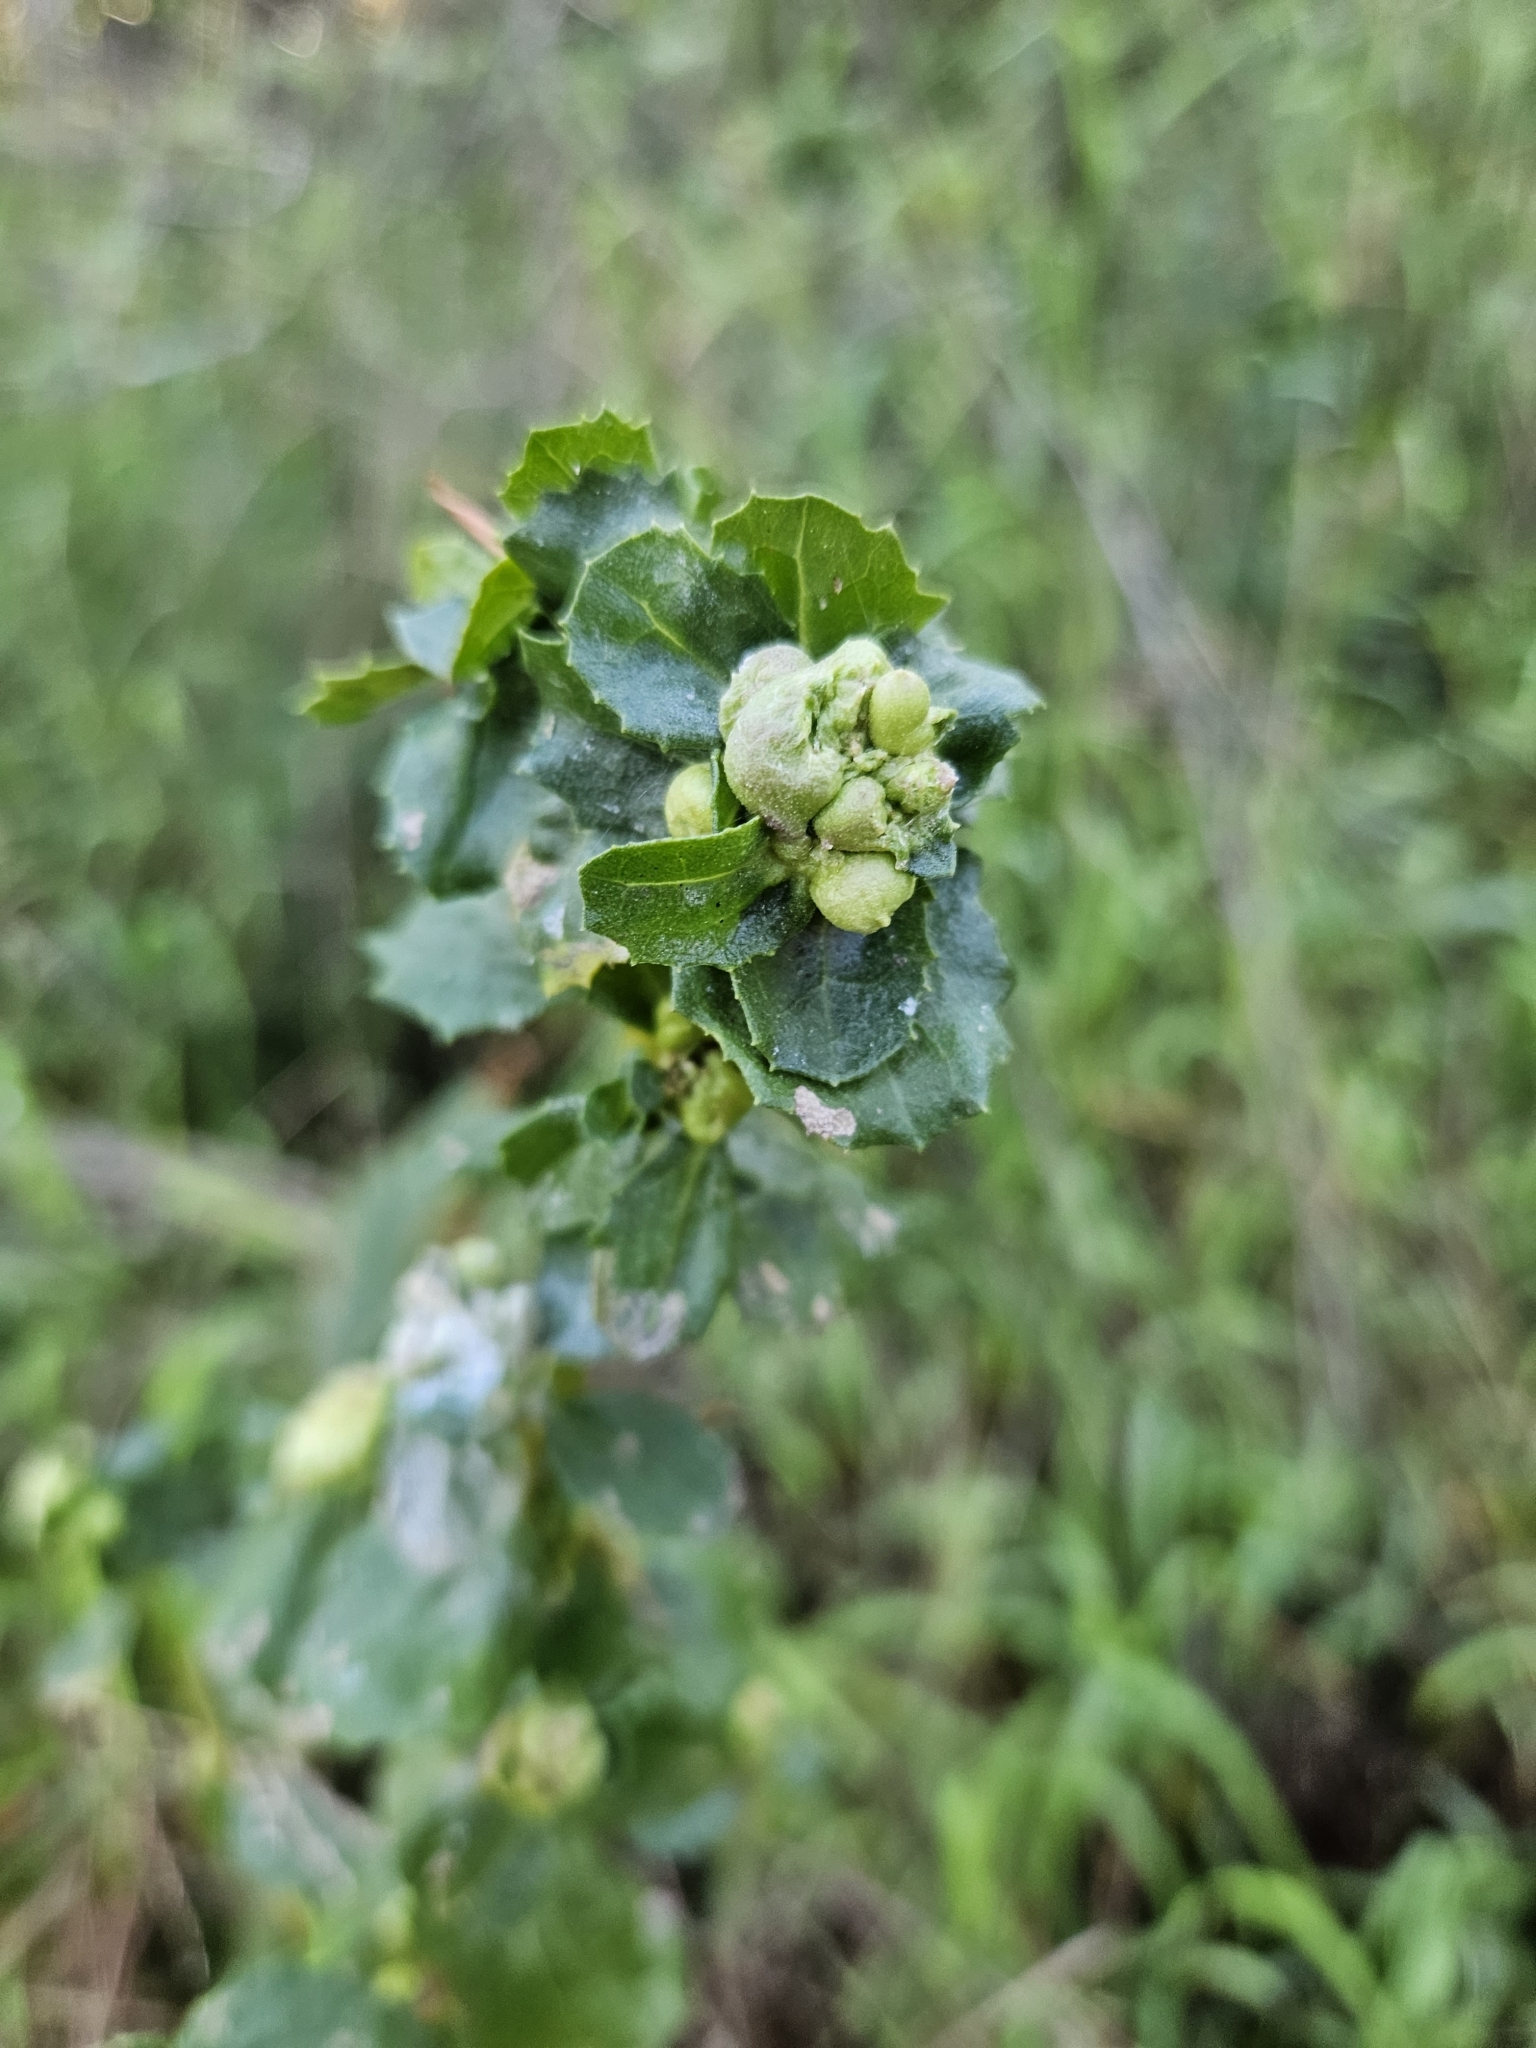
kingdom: Animalia
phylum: Arthropoda
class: Insecta
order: Diptera
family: Cecidomyiidae
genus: Rhopalomyia
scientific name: Rhopalomyia californica
